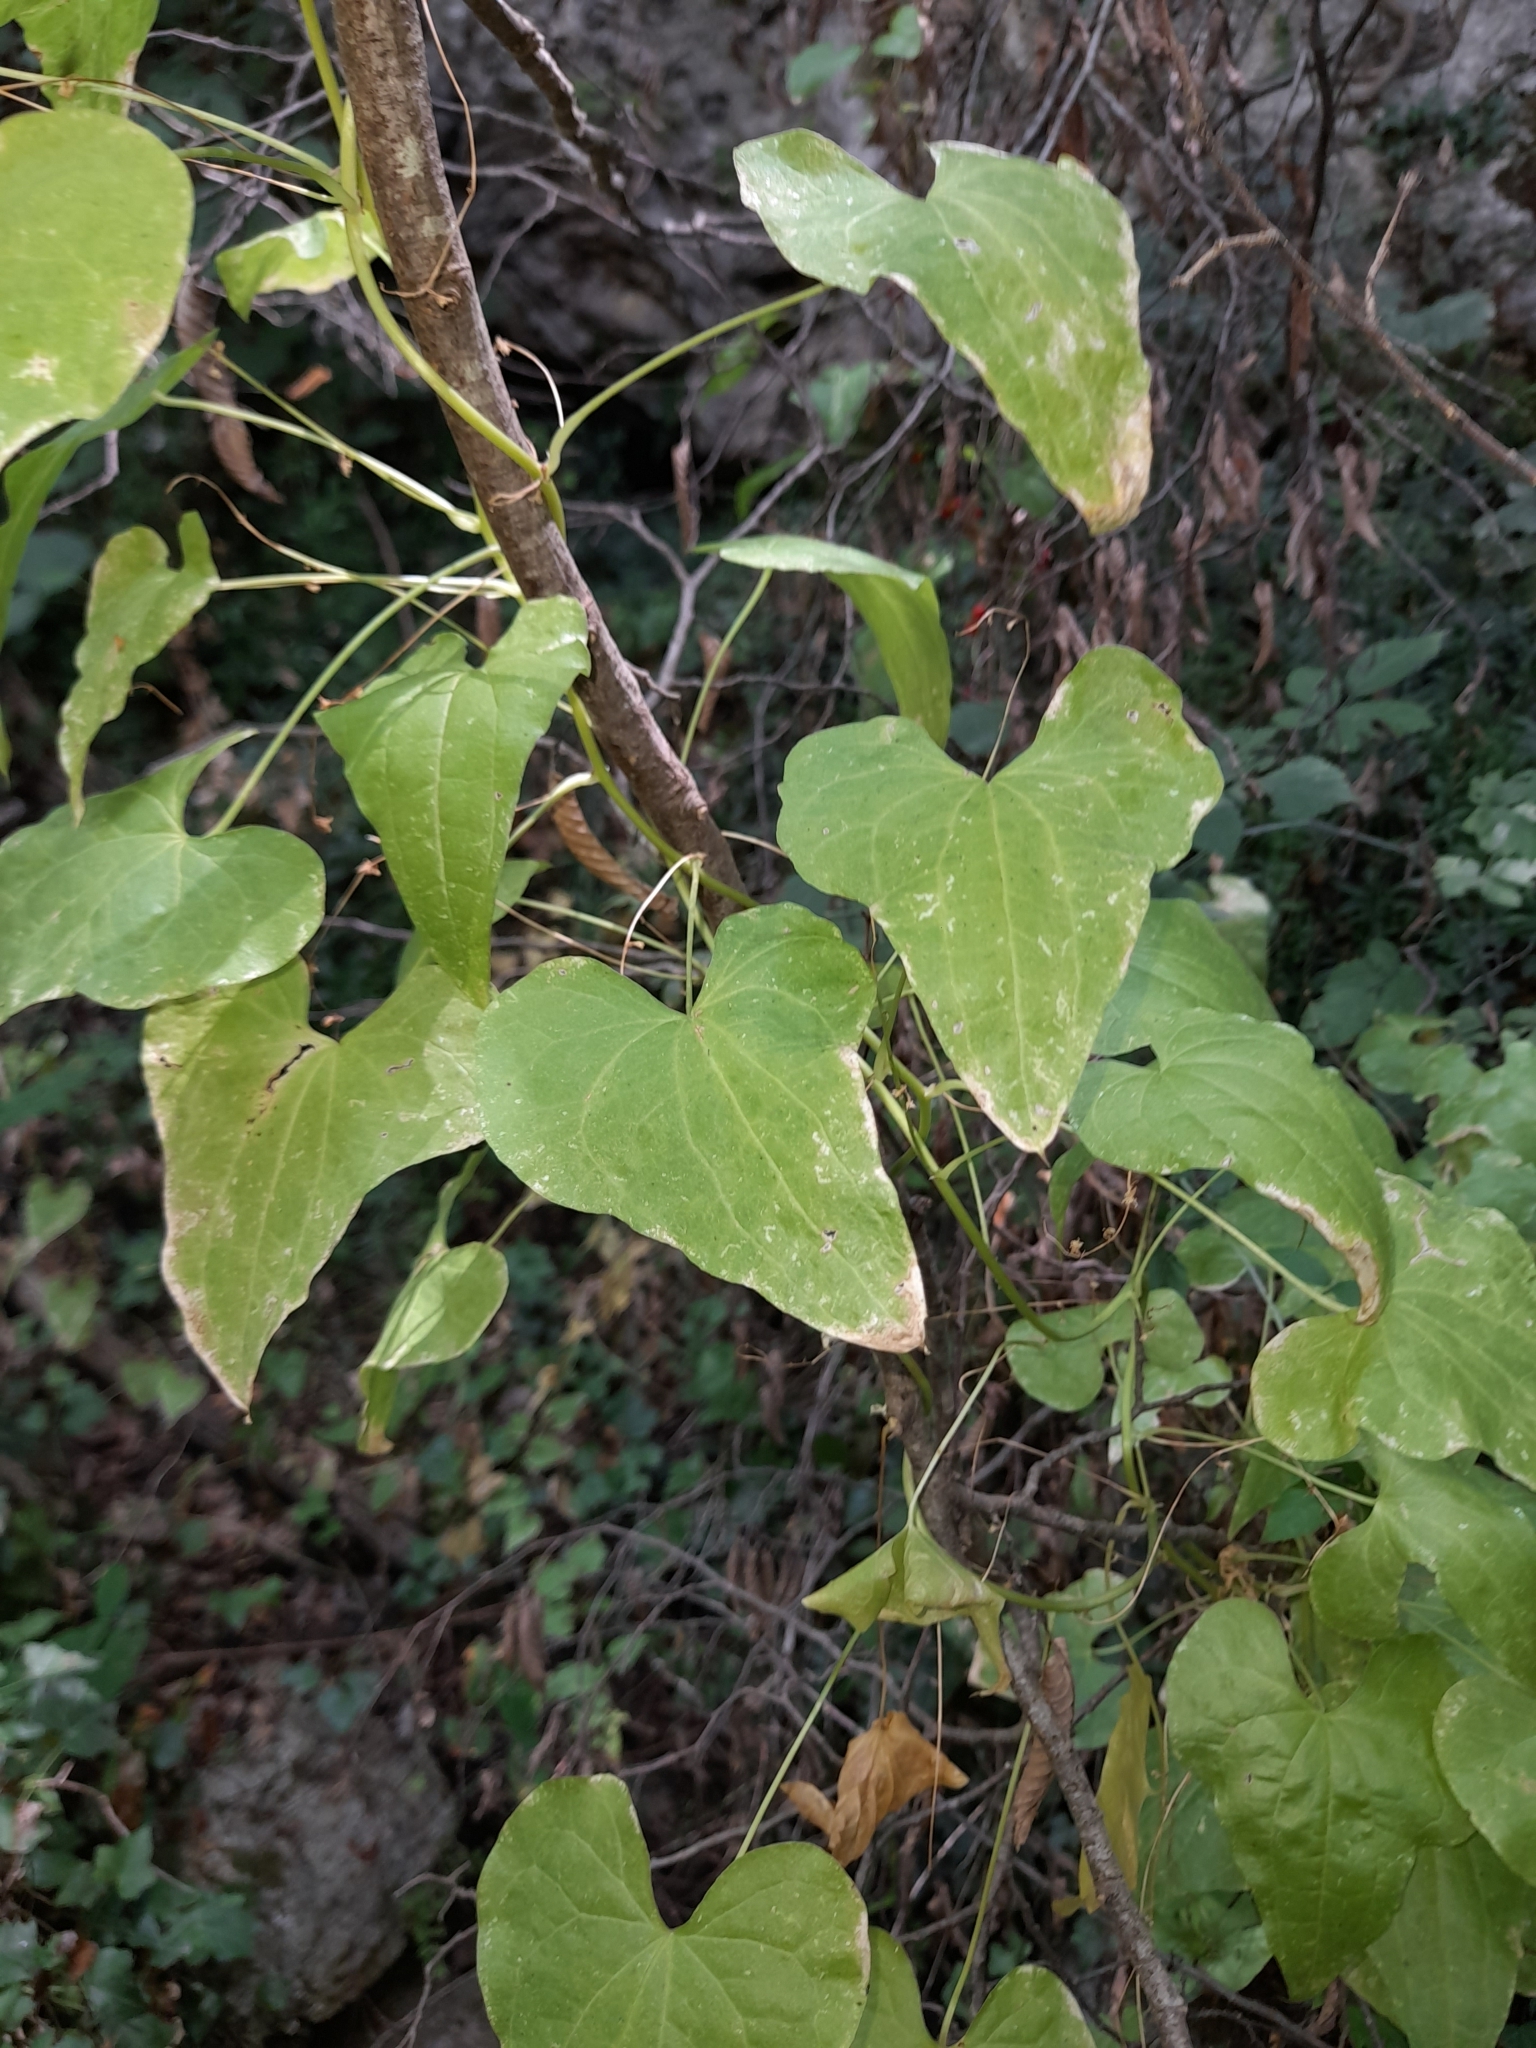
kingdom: Plantae
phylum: Tracheophyta
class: Liliopsida
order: Dioscoreales
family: Dioscoreaceae
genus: Dioscorea
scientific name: Dioscorea communis
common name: Black-bindweed
